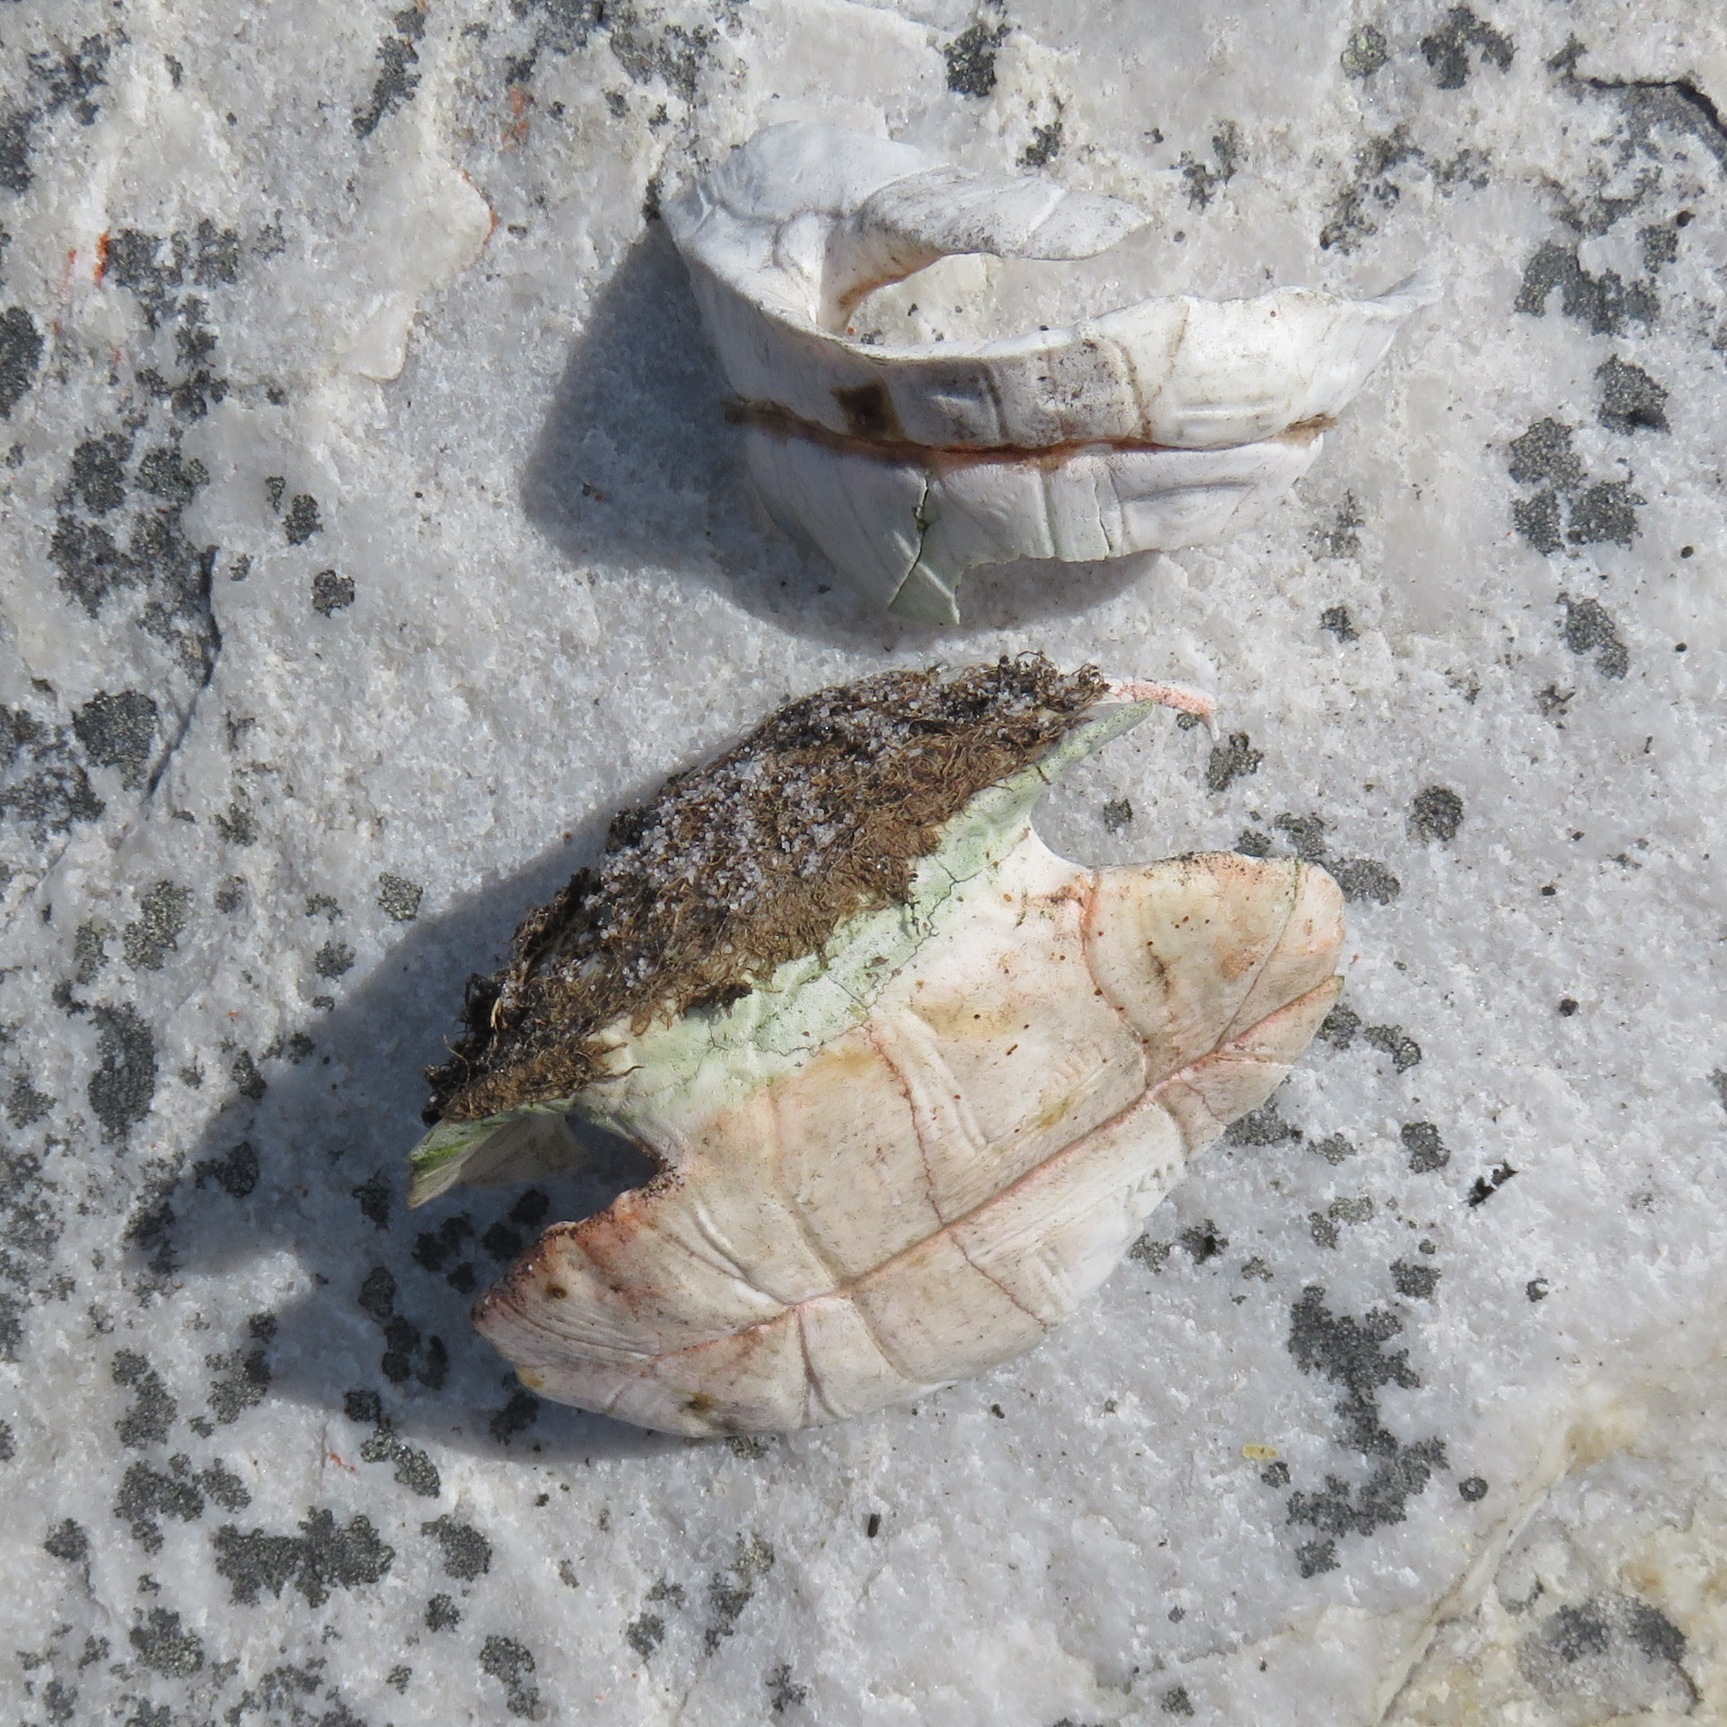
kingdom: Animalia
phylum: Chordata
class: Testudines
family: Testudinidae
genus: Chersina
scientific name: Chersina angulata
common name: South african bowsprit tortoise
